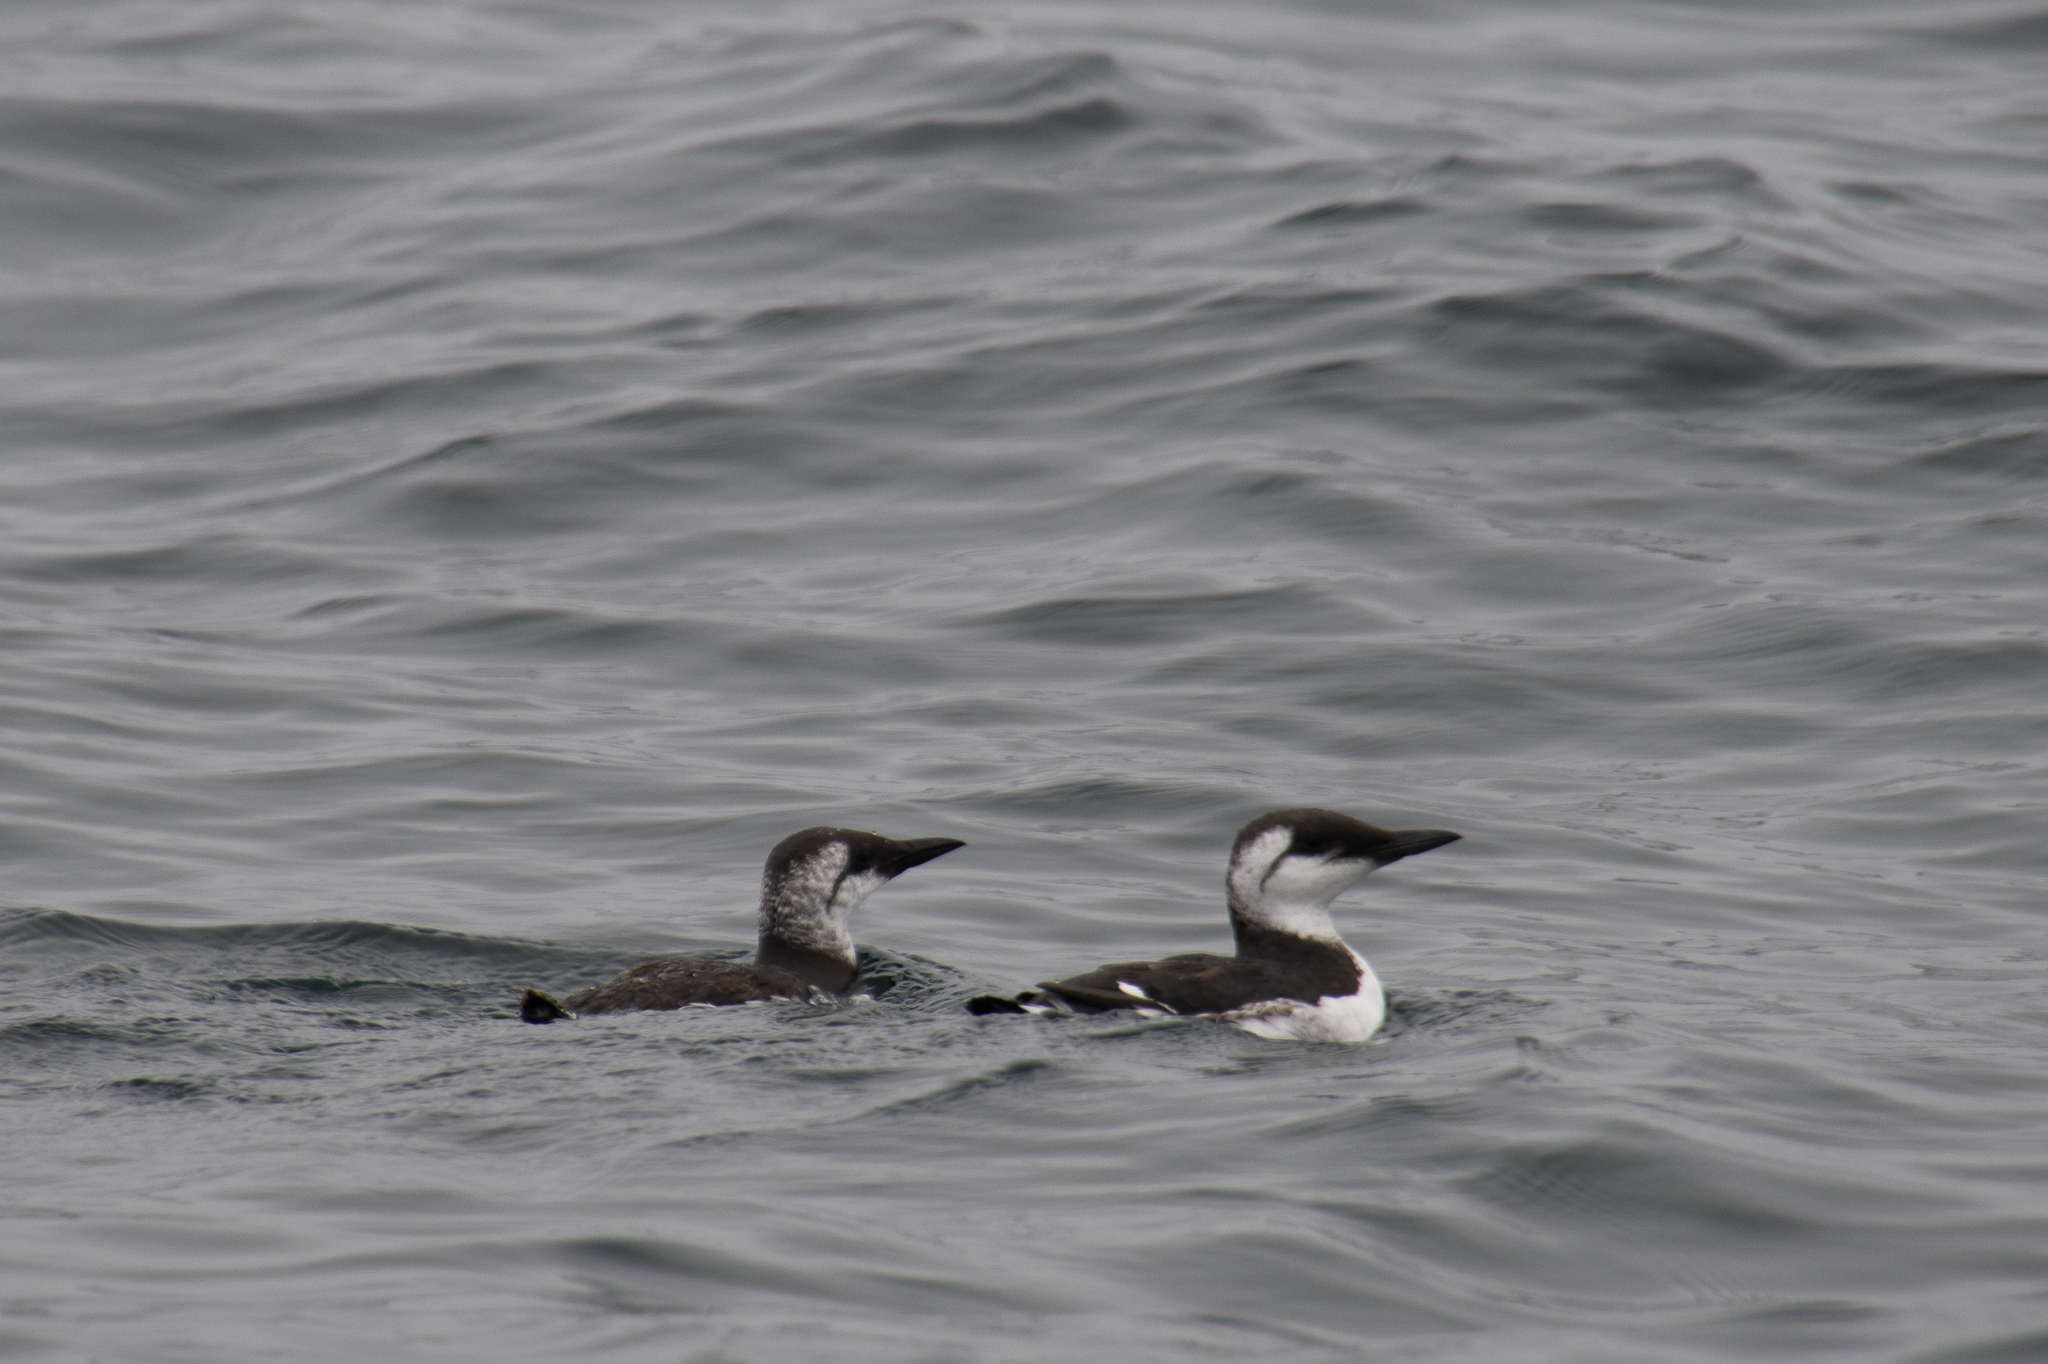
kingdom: Animalia
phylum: Chordata
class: Aves
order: Charadriiformes
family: Alcidae
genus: Uria
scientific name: Uria aalge
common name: Common murre
